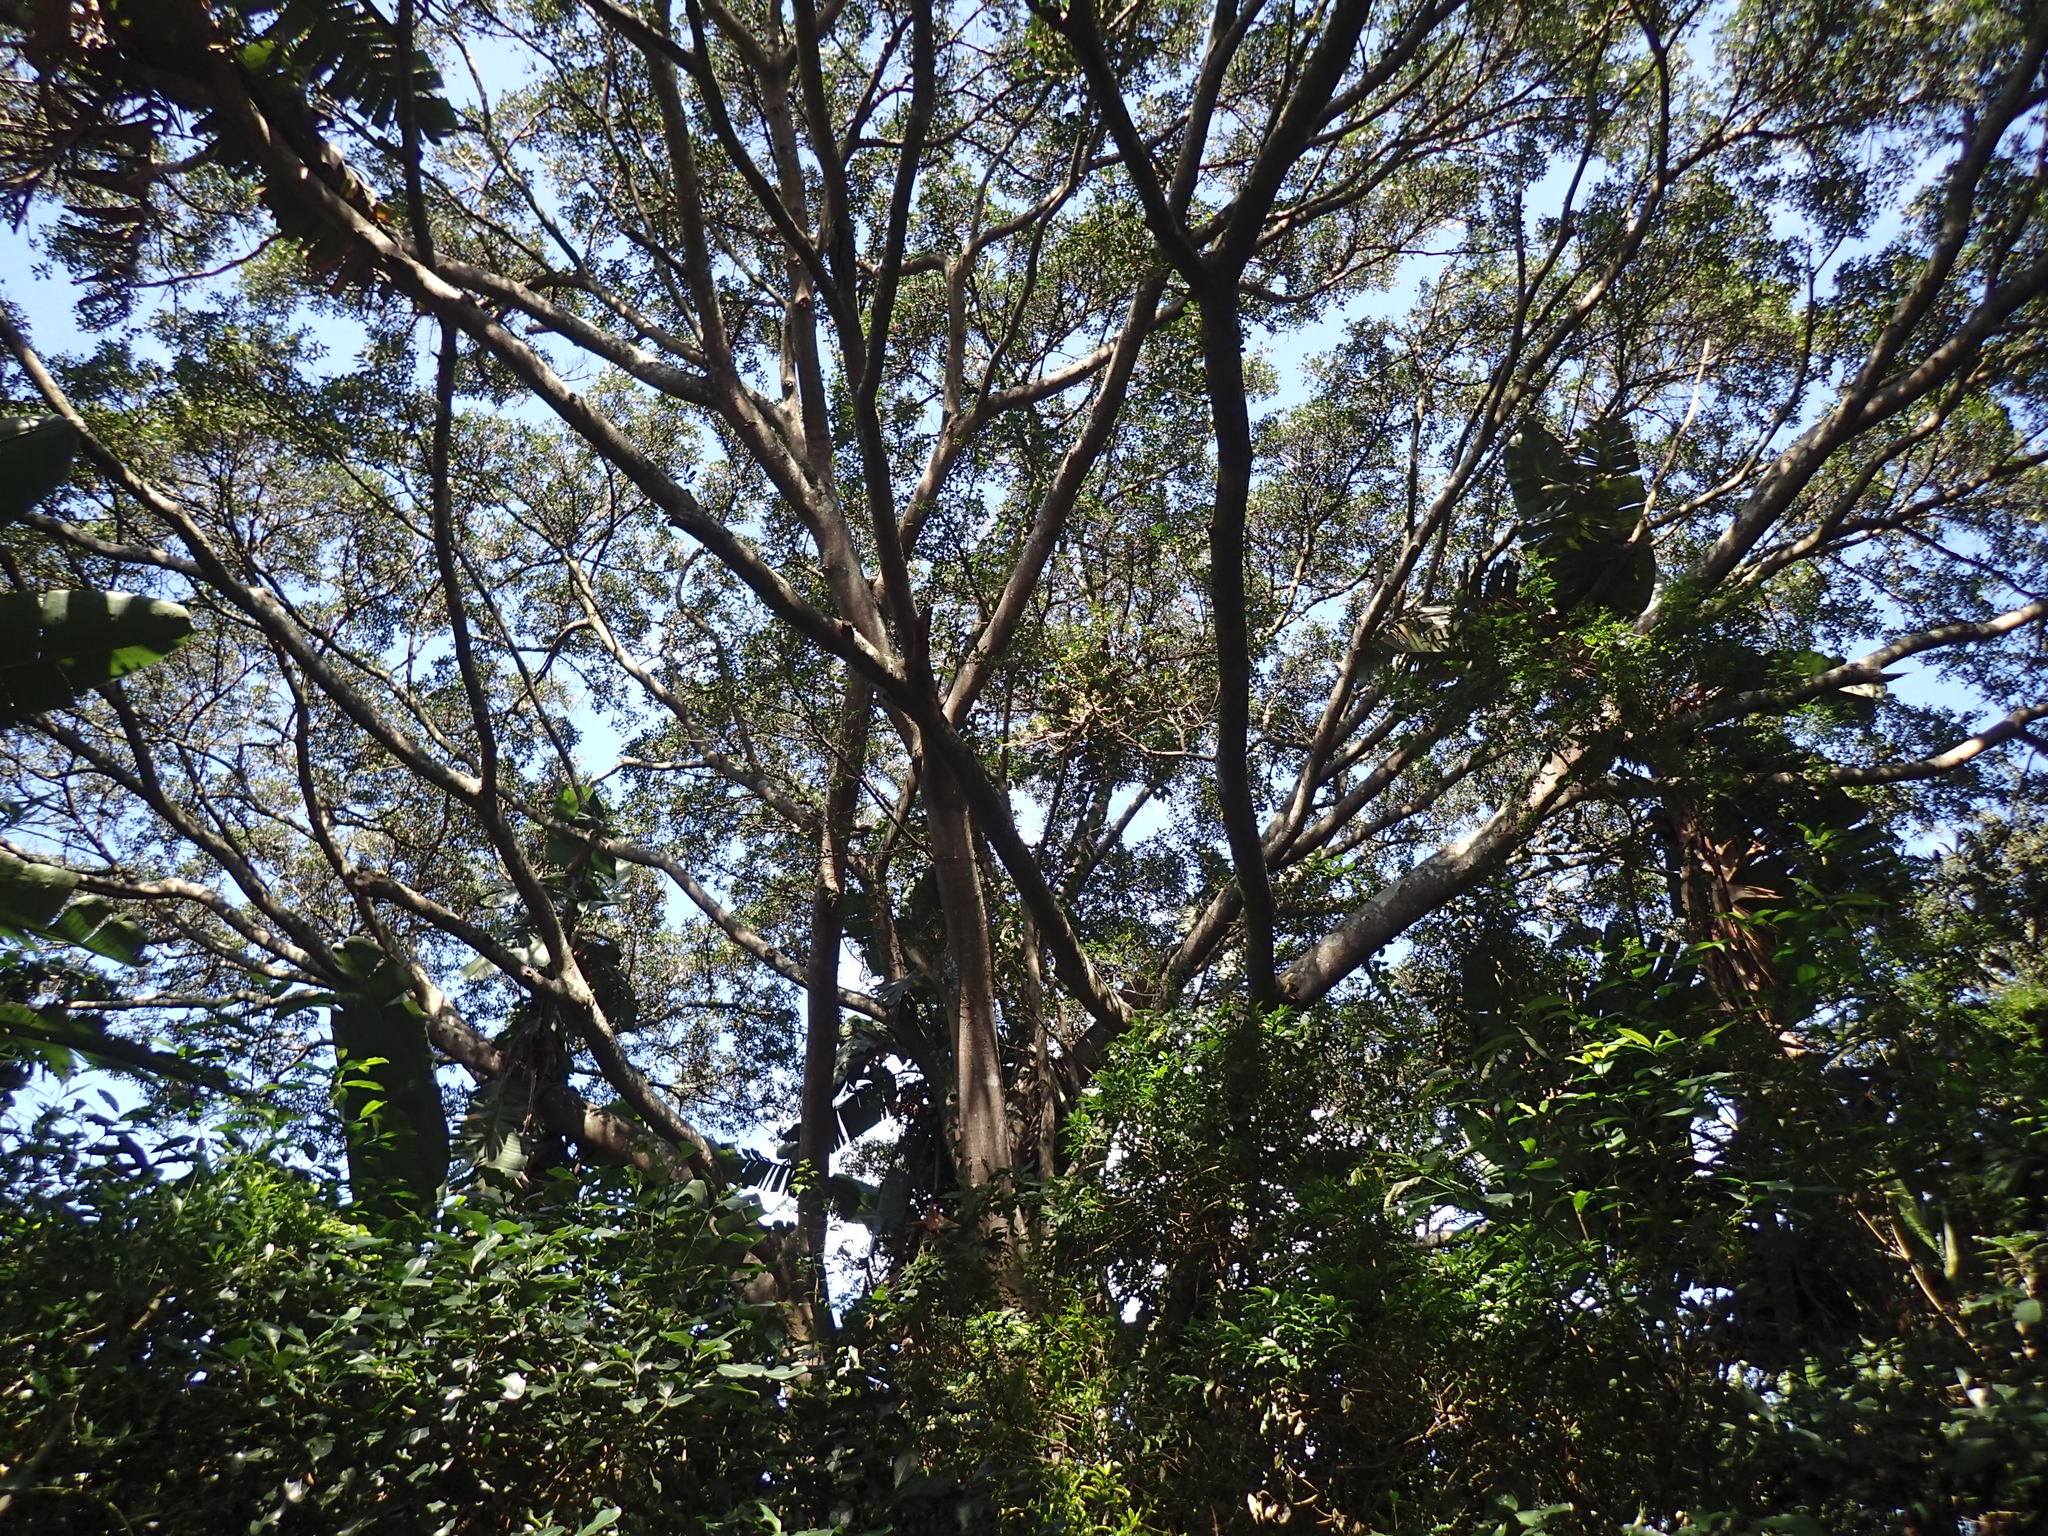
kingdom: Plantae
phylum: Tracheophyta
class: Magnoliopsida
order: Rosales
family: Moraceae
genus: Ficus
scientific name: Ficus natalensis
